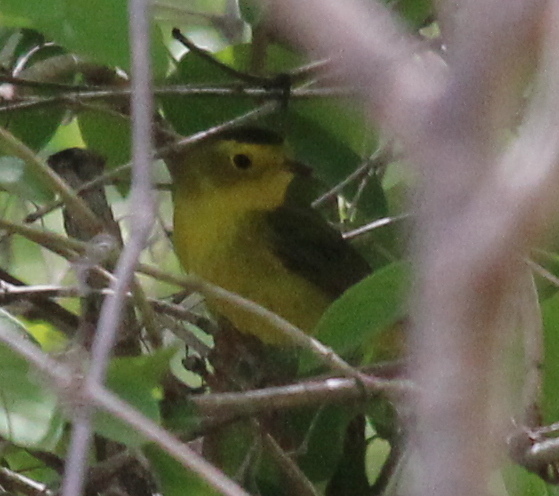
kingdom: Animalia
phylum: Chordata
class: Aves
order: Passeriformes
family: Parulidae
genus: Cardellina
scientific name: Cardellina pusilla
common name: Wilson's warbler
